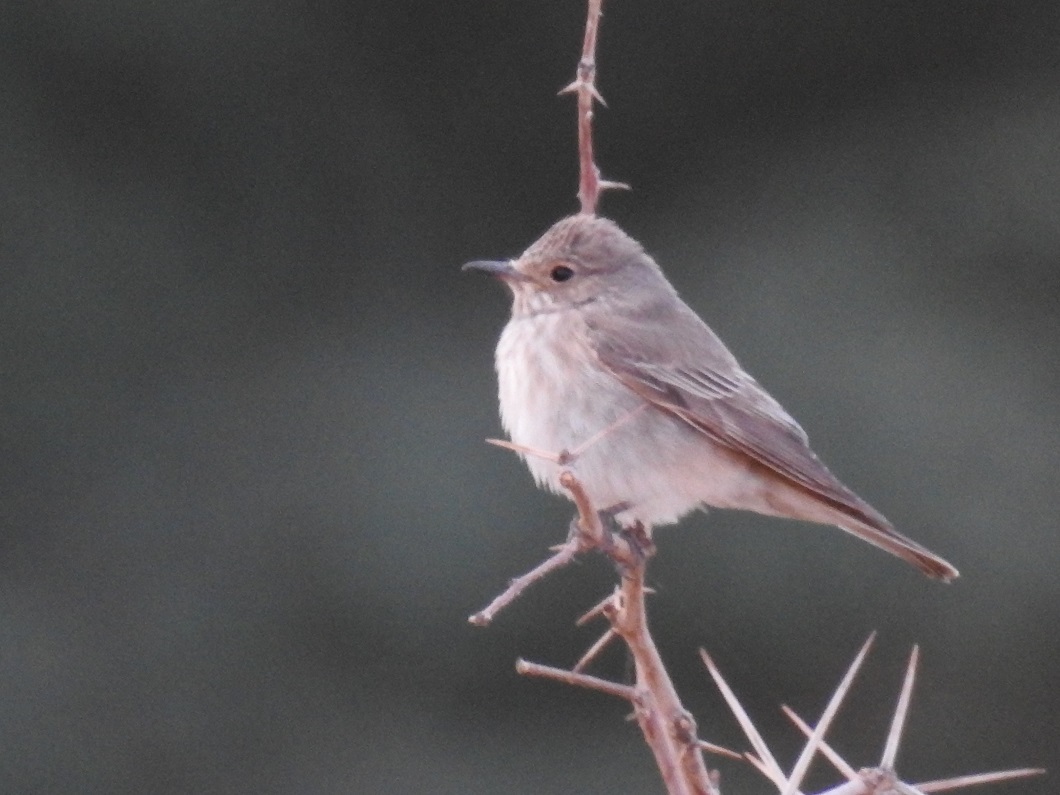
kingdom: Animalia
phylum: Chordata
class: Aves
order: Passeriformes
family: Muscicapidae
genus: Muscicapa
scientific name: Muscicapa striata
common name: Spotted flycatcher
